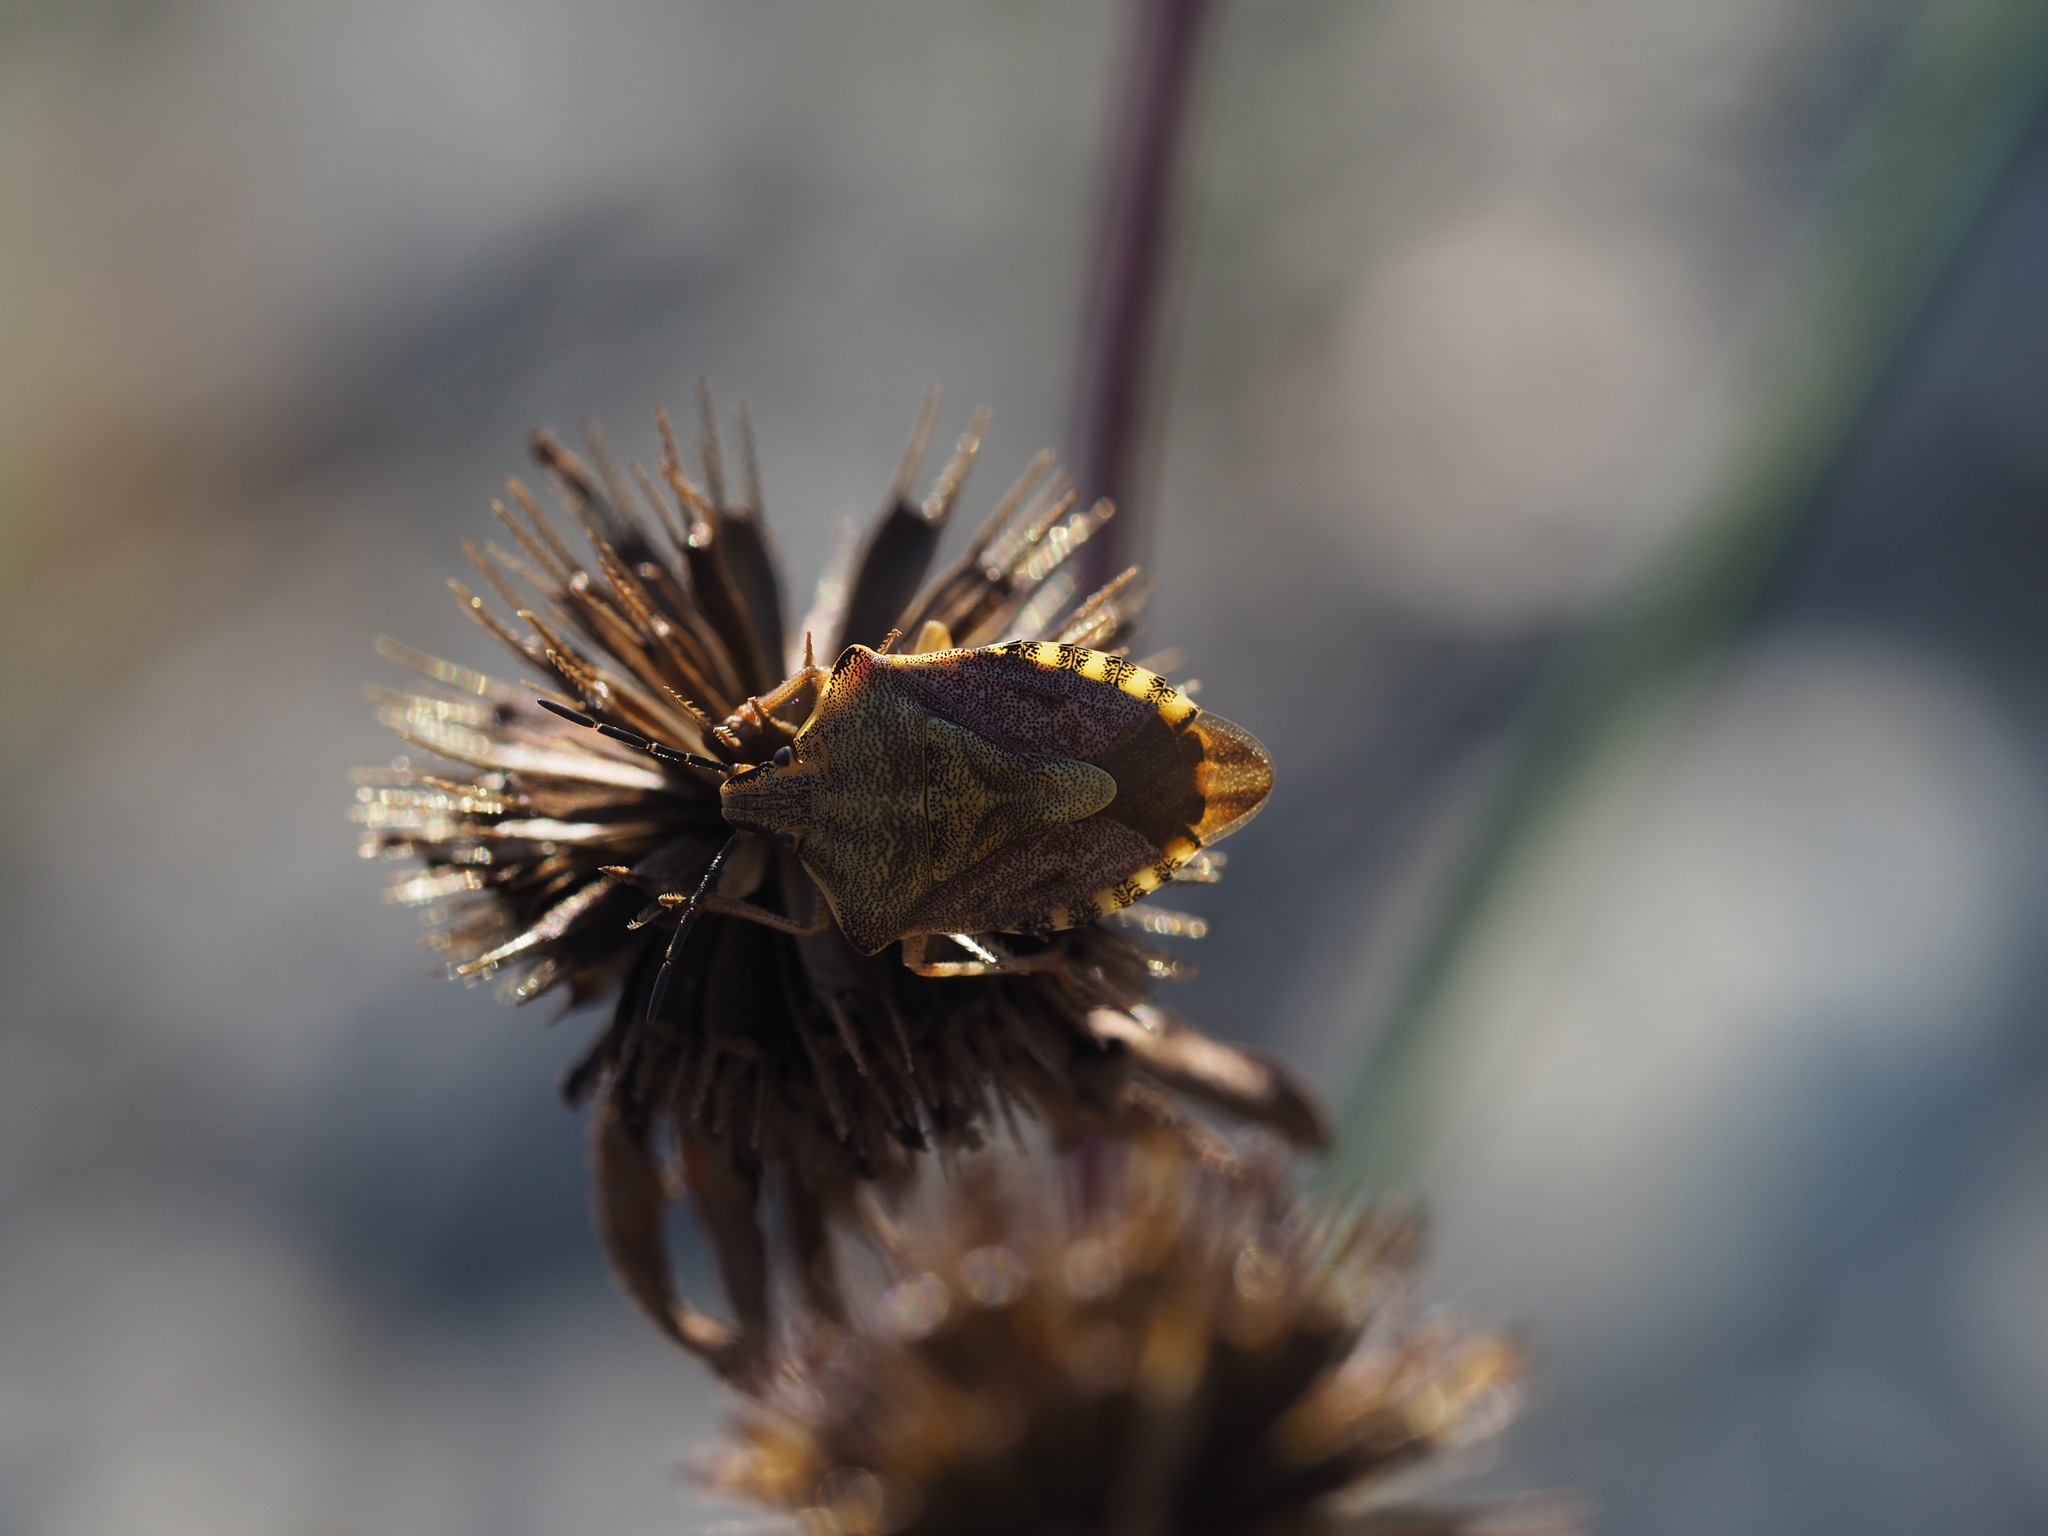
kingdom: Animalia
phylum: Arthropoda
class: Insecta
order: Hemiptera
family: Pentatomidae
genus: Carpocoris
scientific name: Carpocoris purpureipennis
